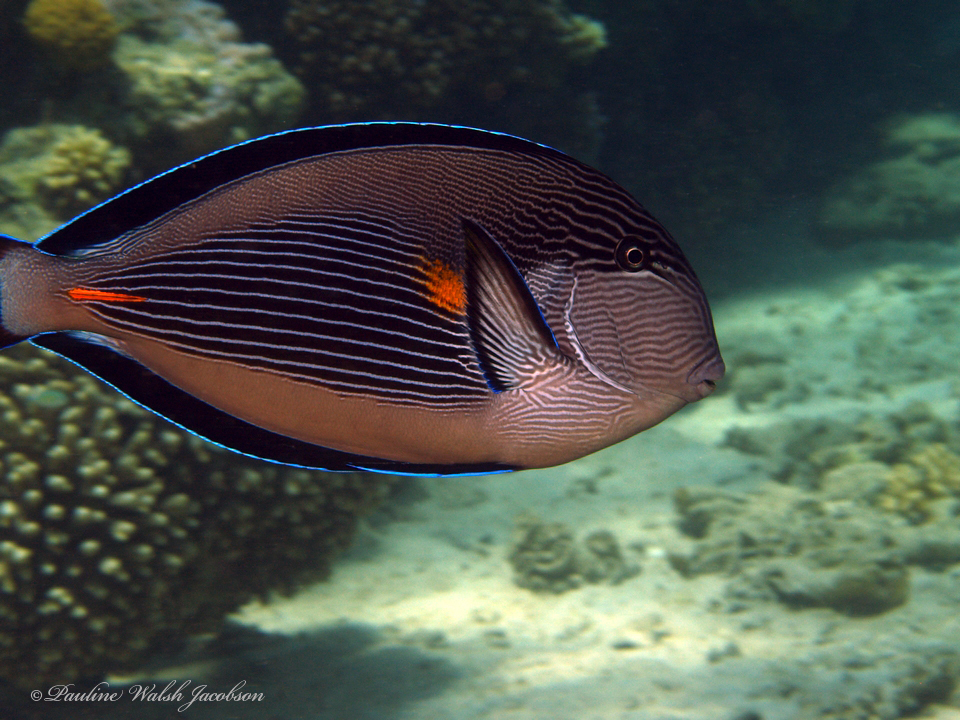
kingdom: Animalia
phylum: Chordata
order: Perciformes
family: Acanthuridae
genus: Acanthurus
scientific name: Acanthurus sohal
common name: Red sea surgeonfish
